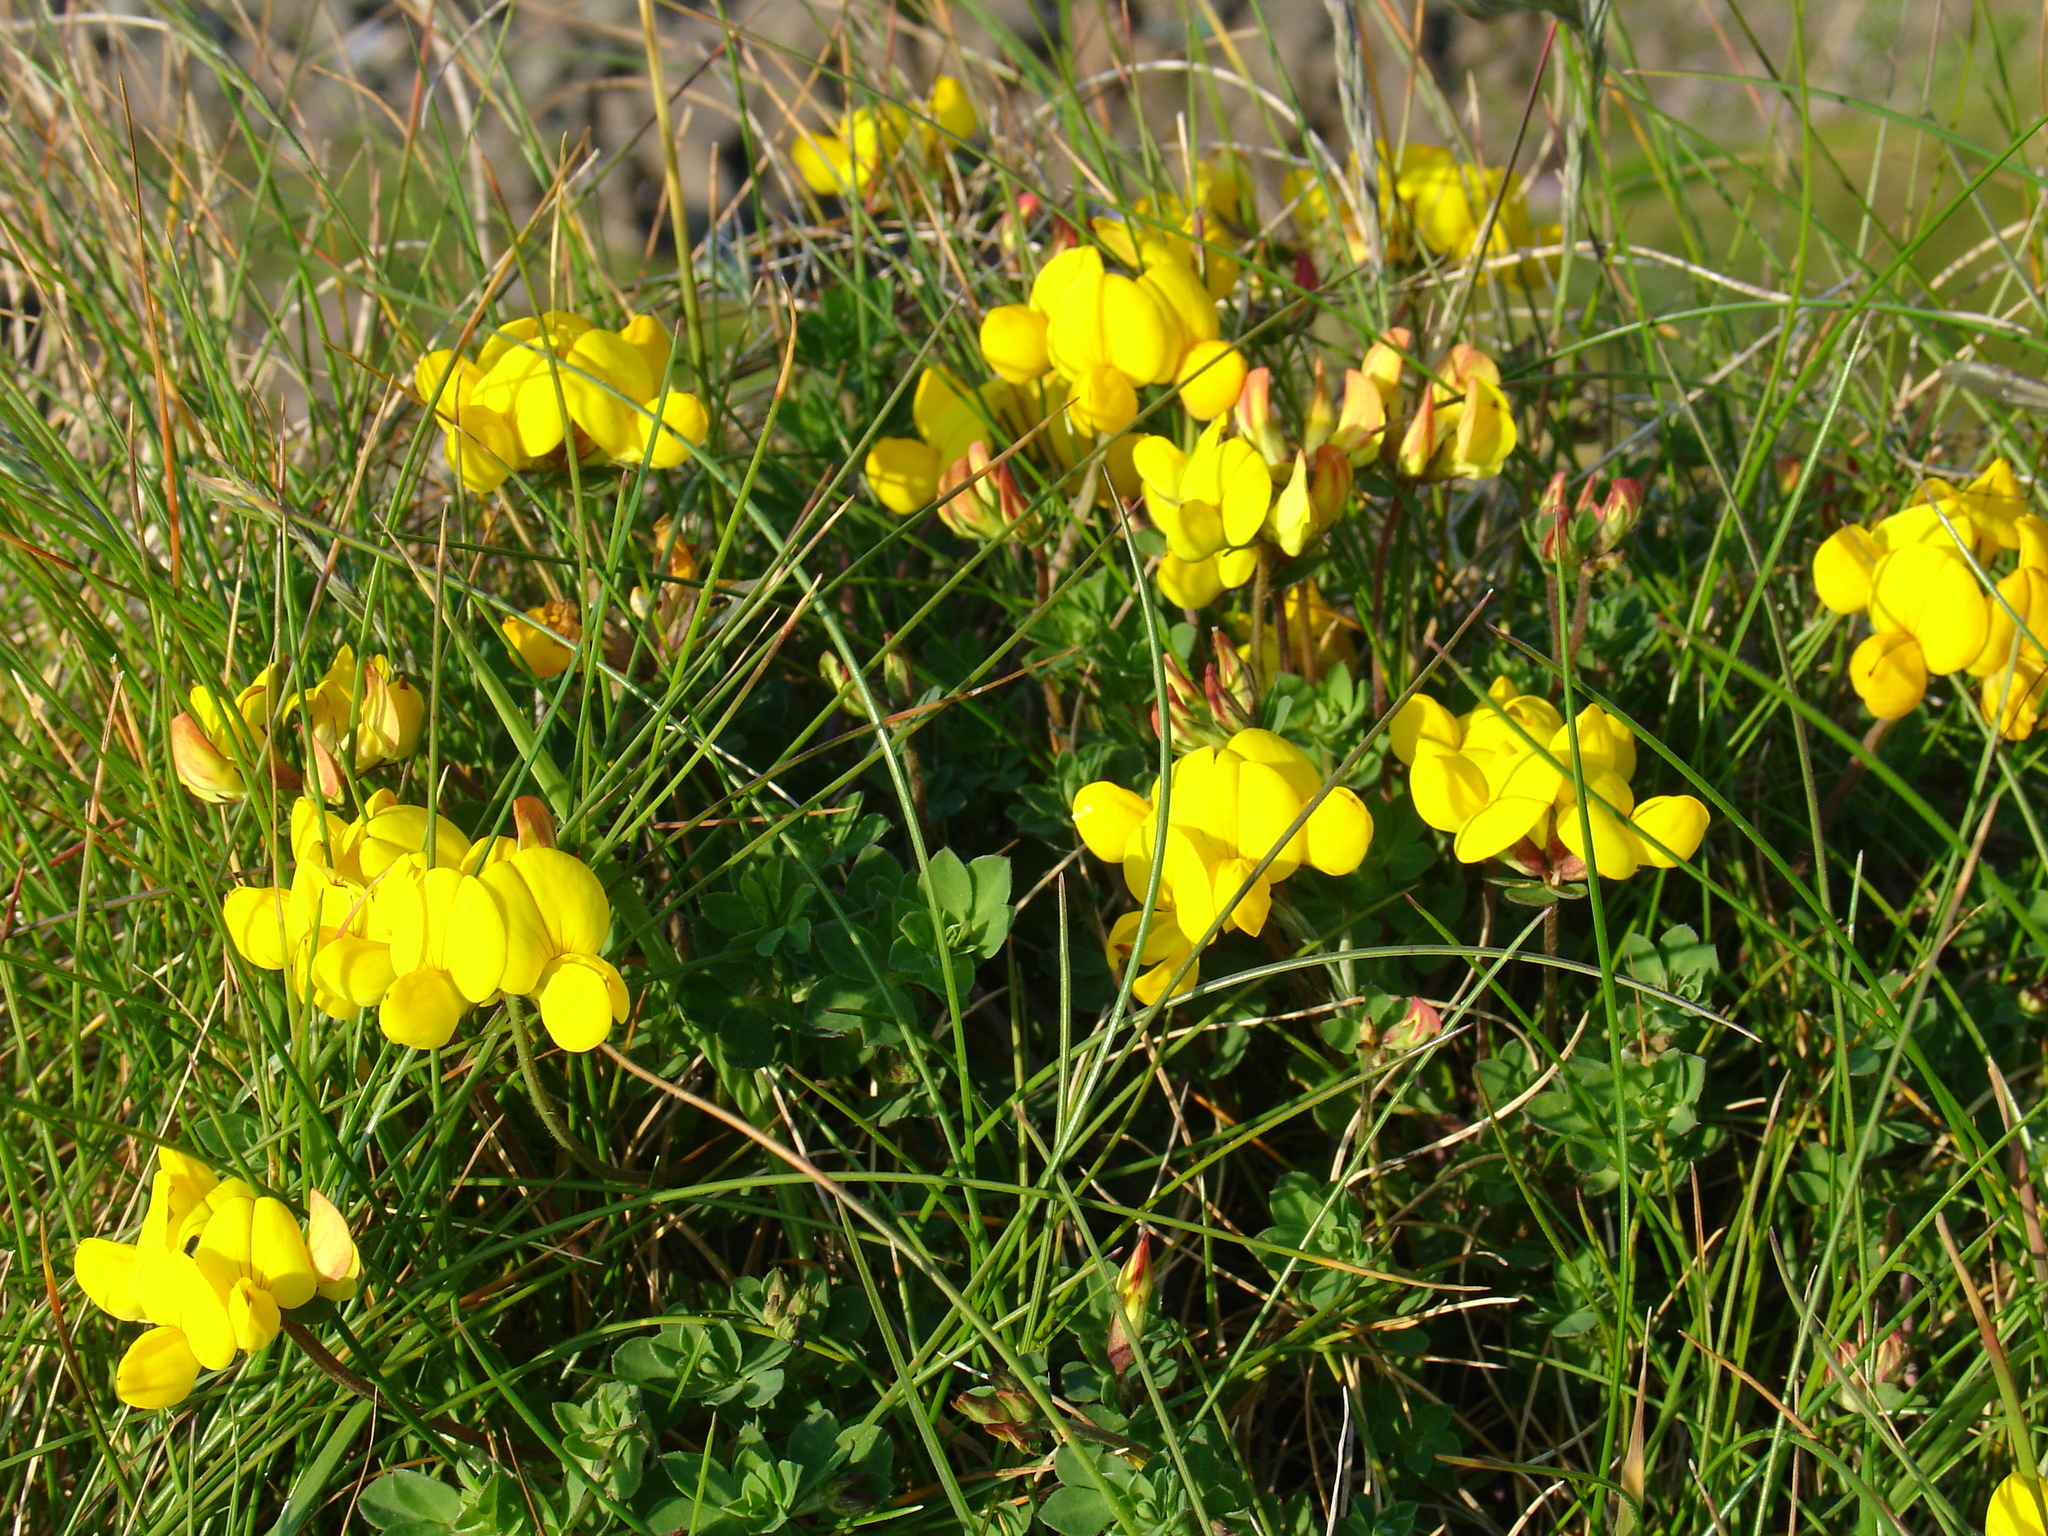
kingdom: Plantae
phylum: Tracheophyta
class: Magnoliopsida
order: Fabales
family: Fabaceae
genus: Lotus
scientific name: Lotus corniculatus
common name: Common bird's-foot-trefoil
